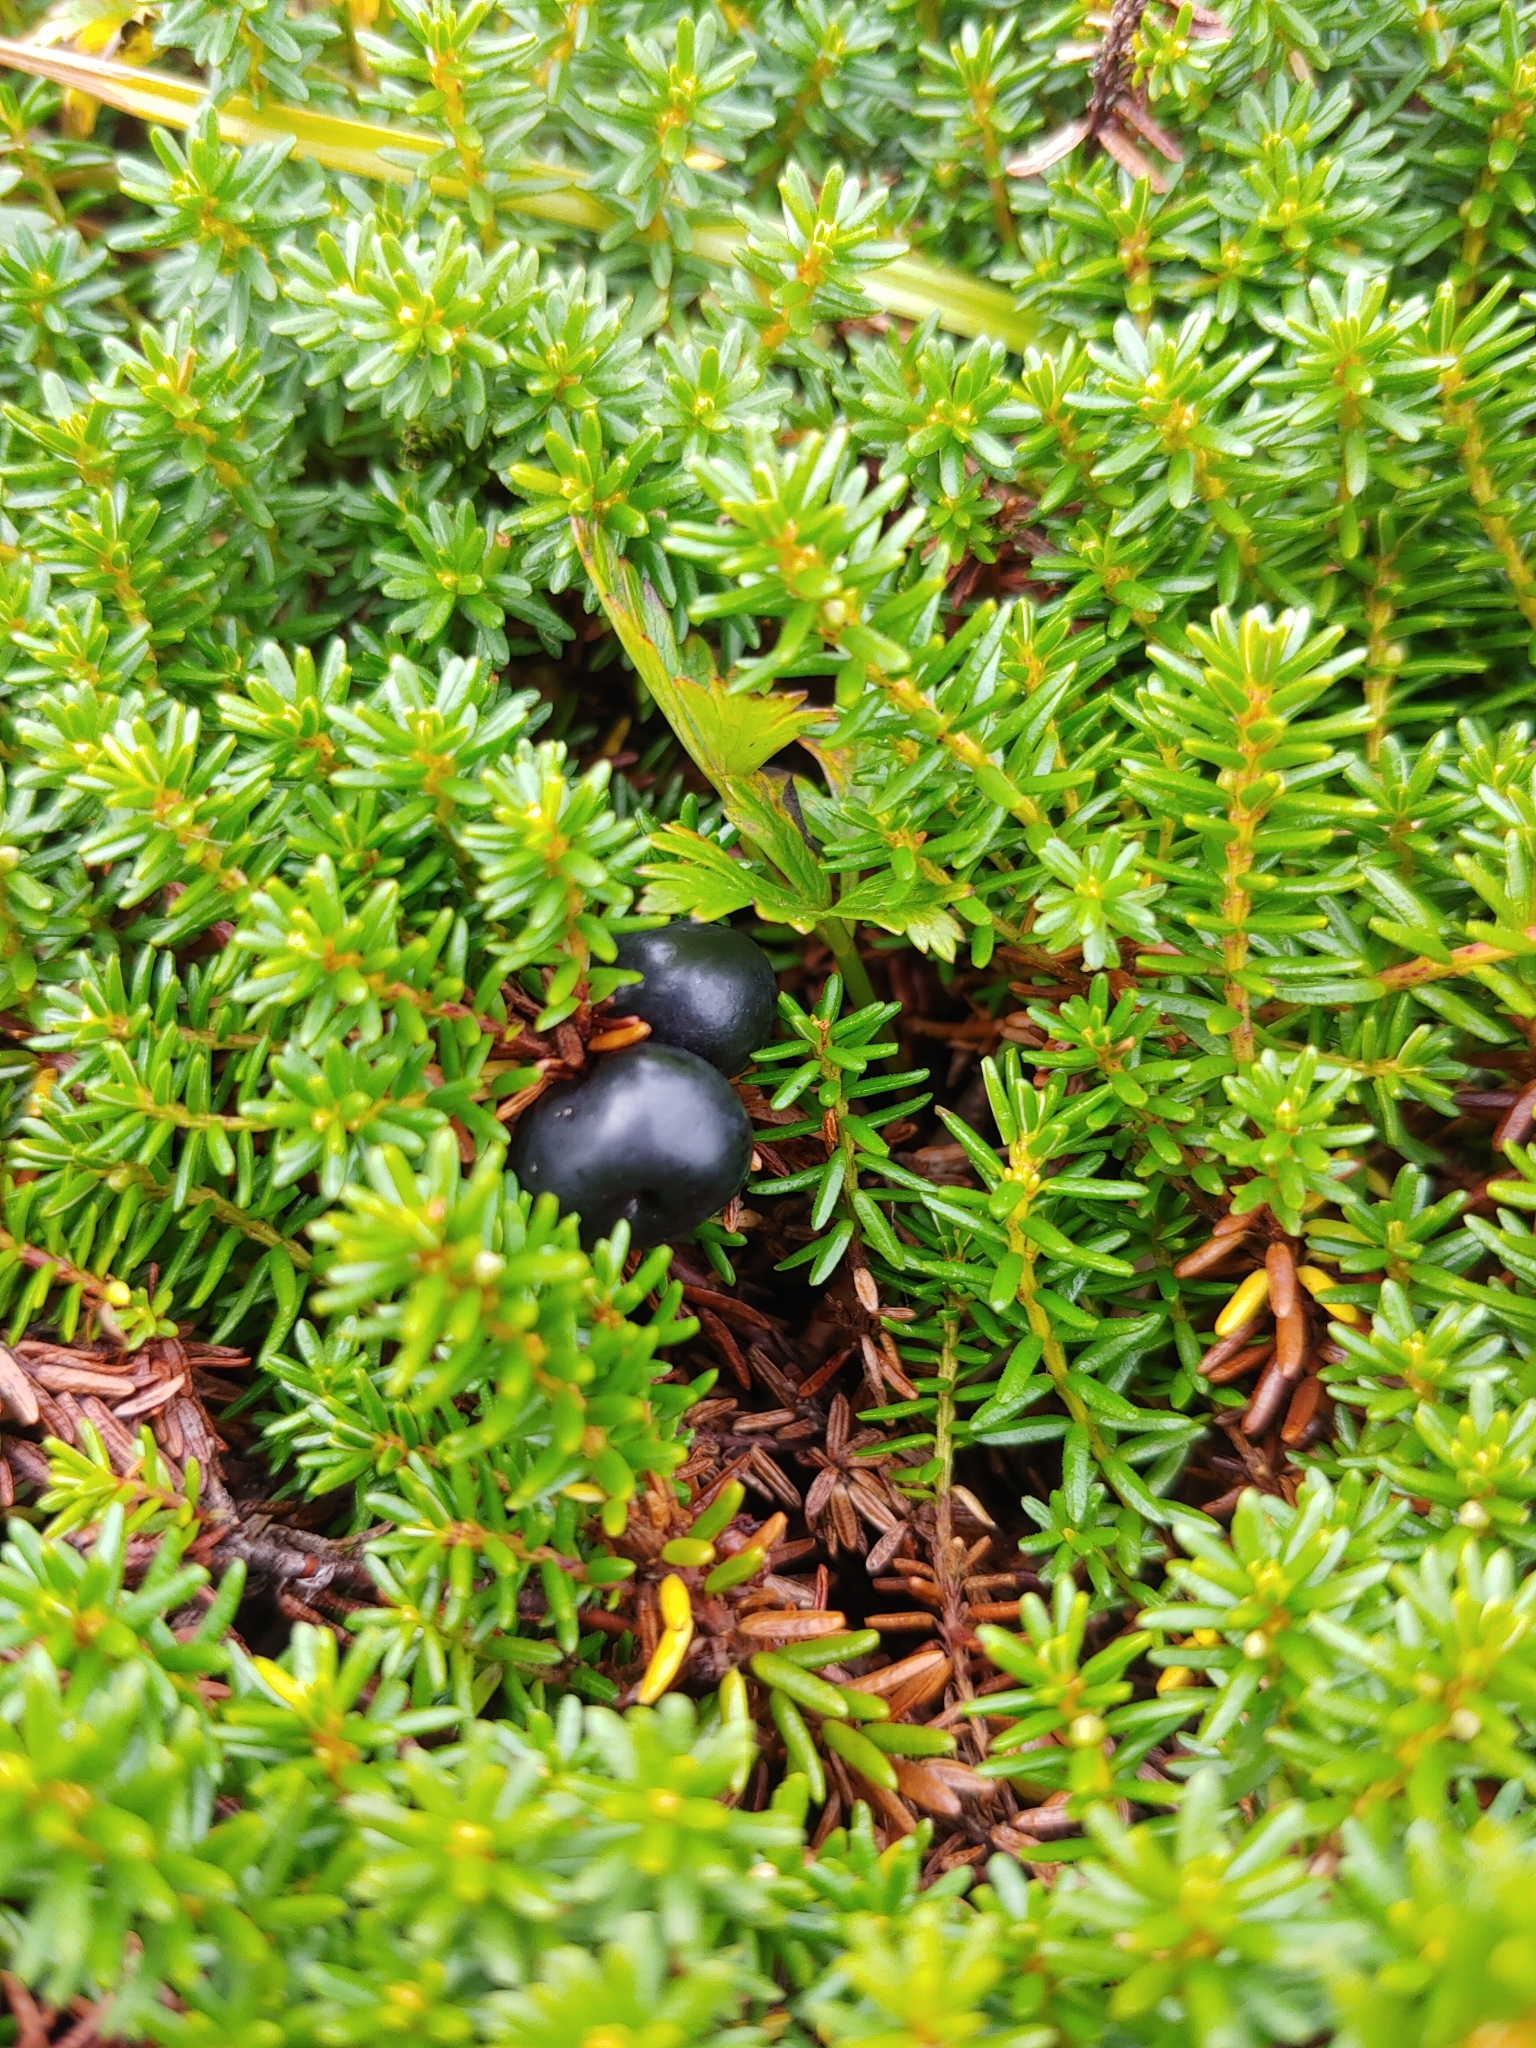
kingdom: Plantae
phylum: Tracheophyta
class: Magnoliopsida
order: Ericales
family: Ericaceae
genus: Empetrum
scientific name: Empetrum nigrum
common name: Black crowberry
